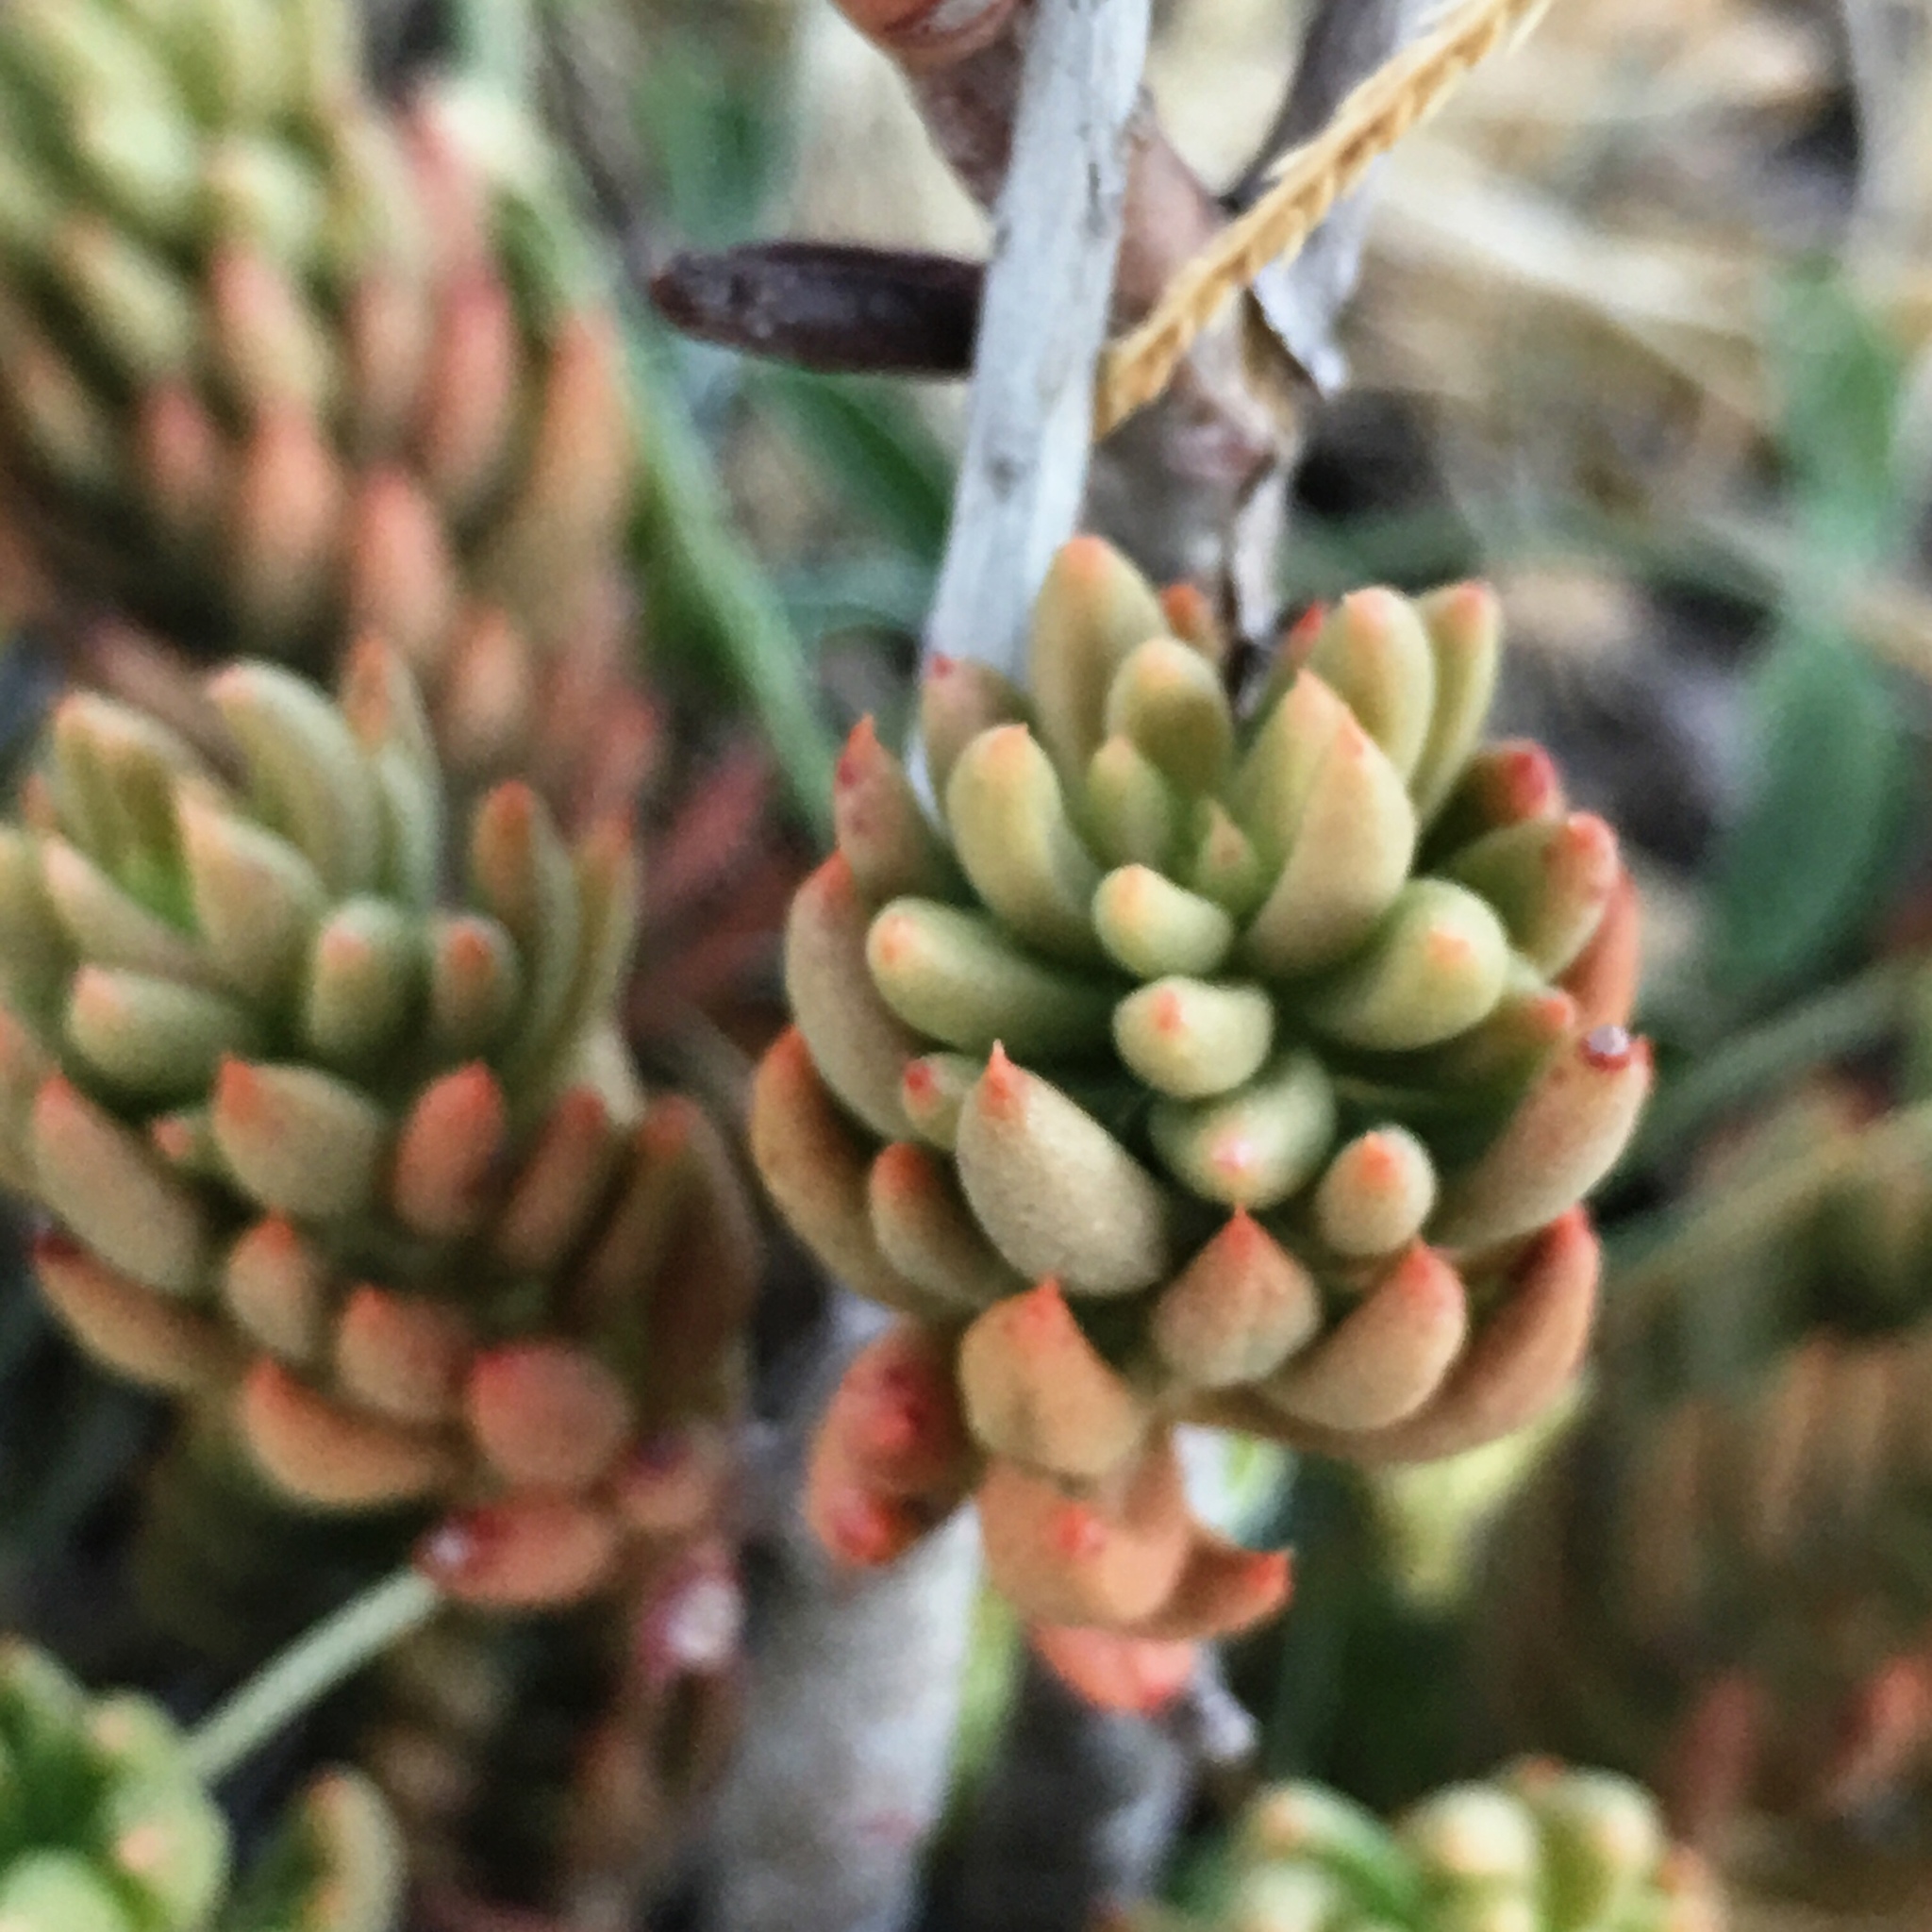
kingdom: Plantae
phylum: Tracheophyta
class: Magnoliopsida
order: Saxifragales
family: Crassulaceae
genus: Petrosedum
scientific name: Petrosedum sediforme
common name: Pale stonecrop
